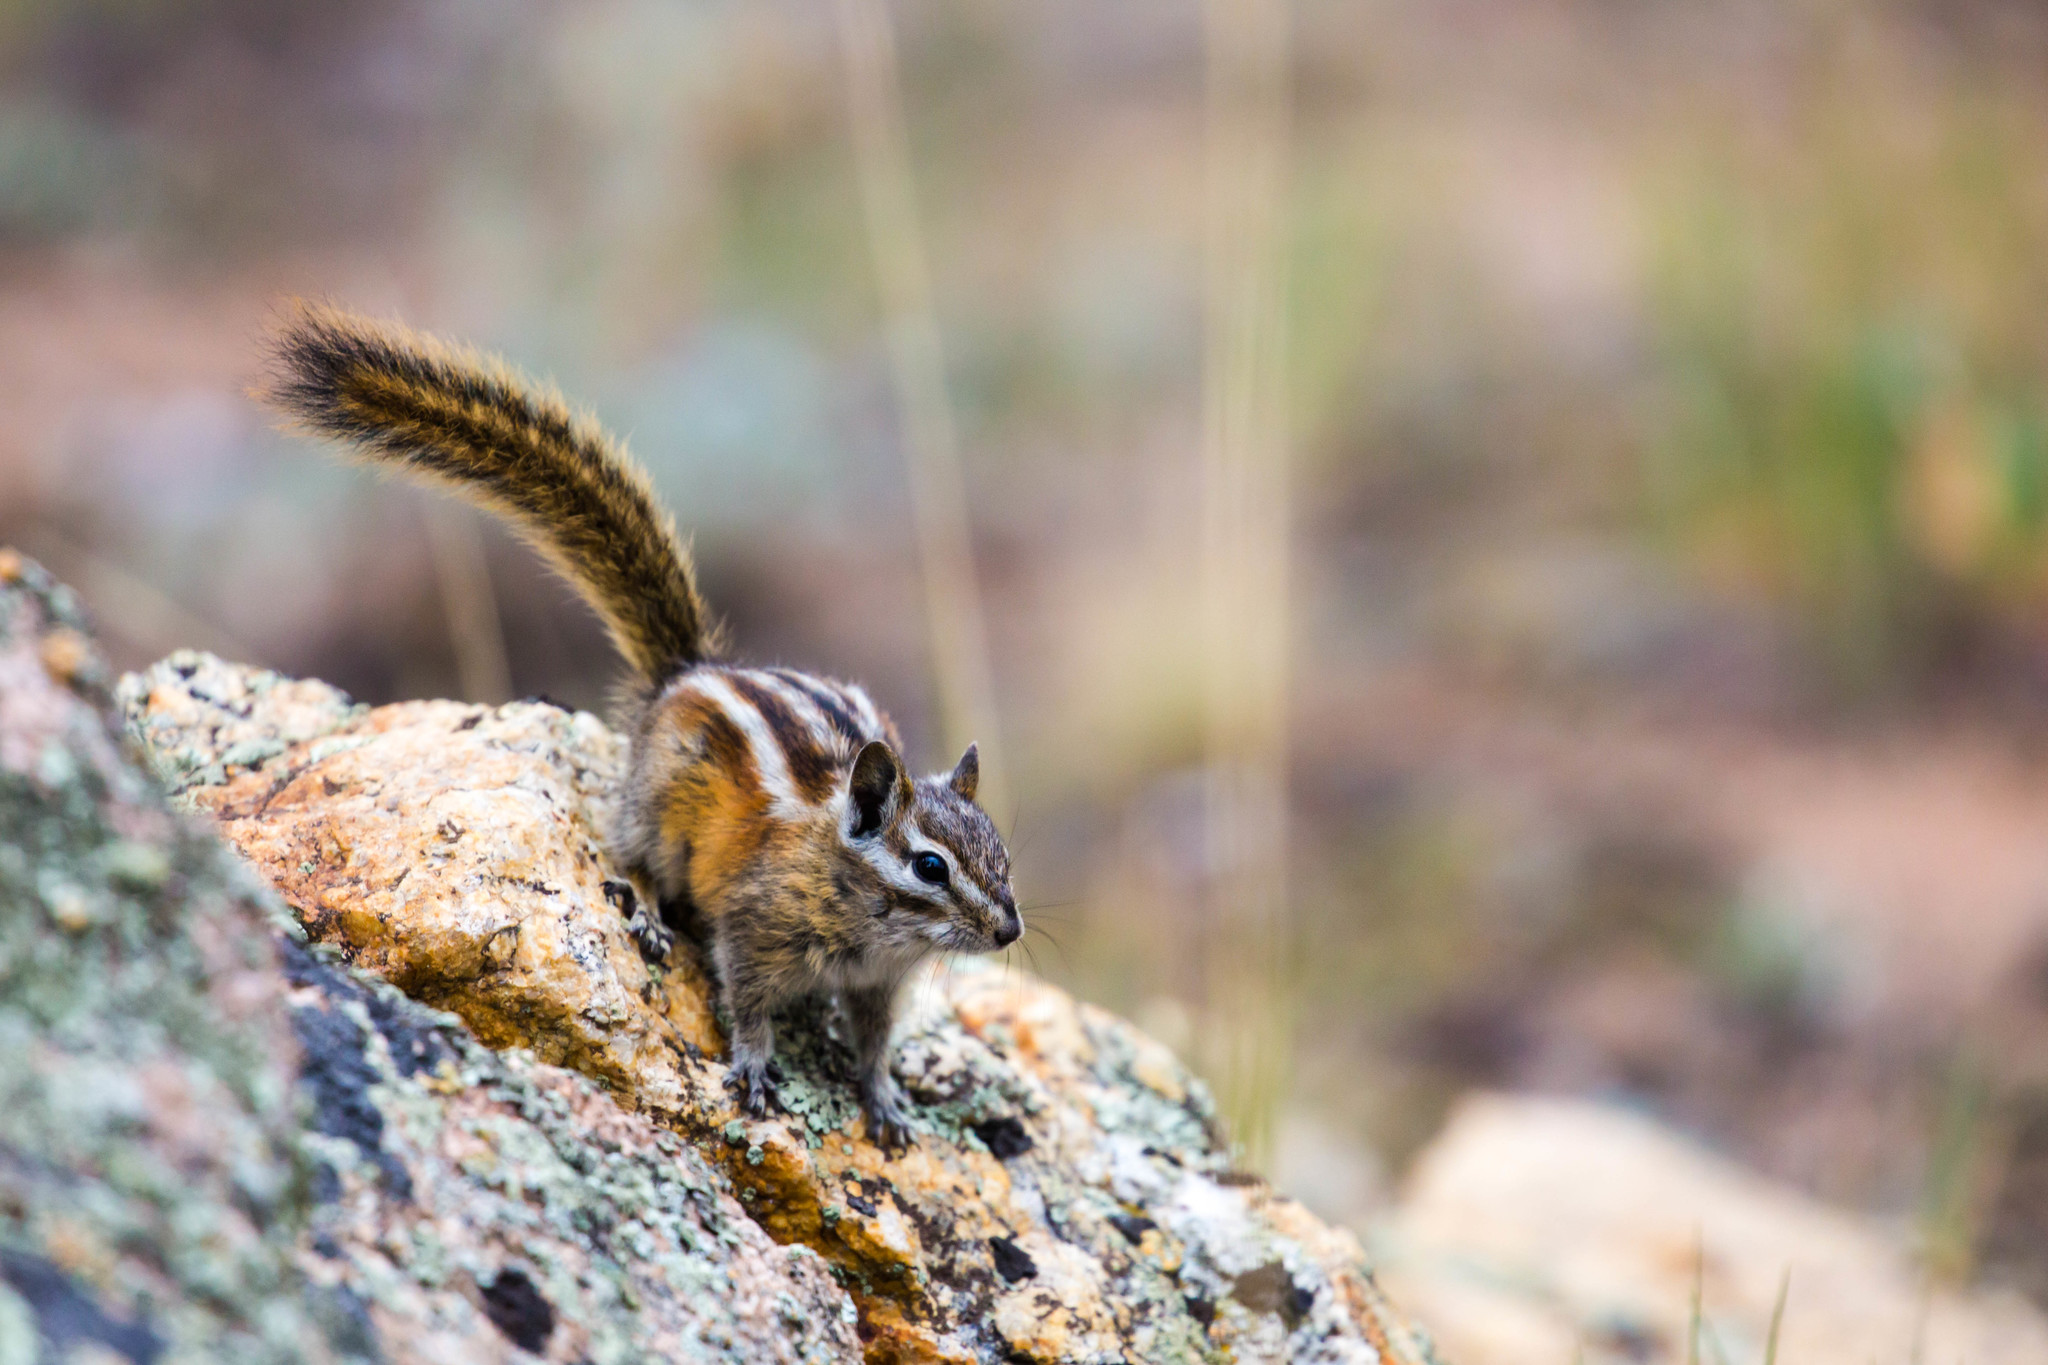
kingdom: Animalia
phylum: Chordata
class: Mammalia
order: Rodentia
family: Sciuridae
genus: Tamias
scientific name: Tamias minimus
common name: Least chipmunk
